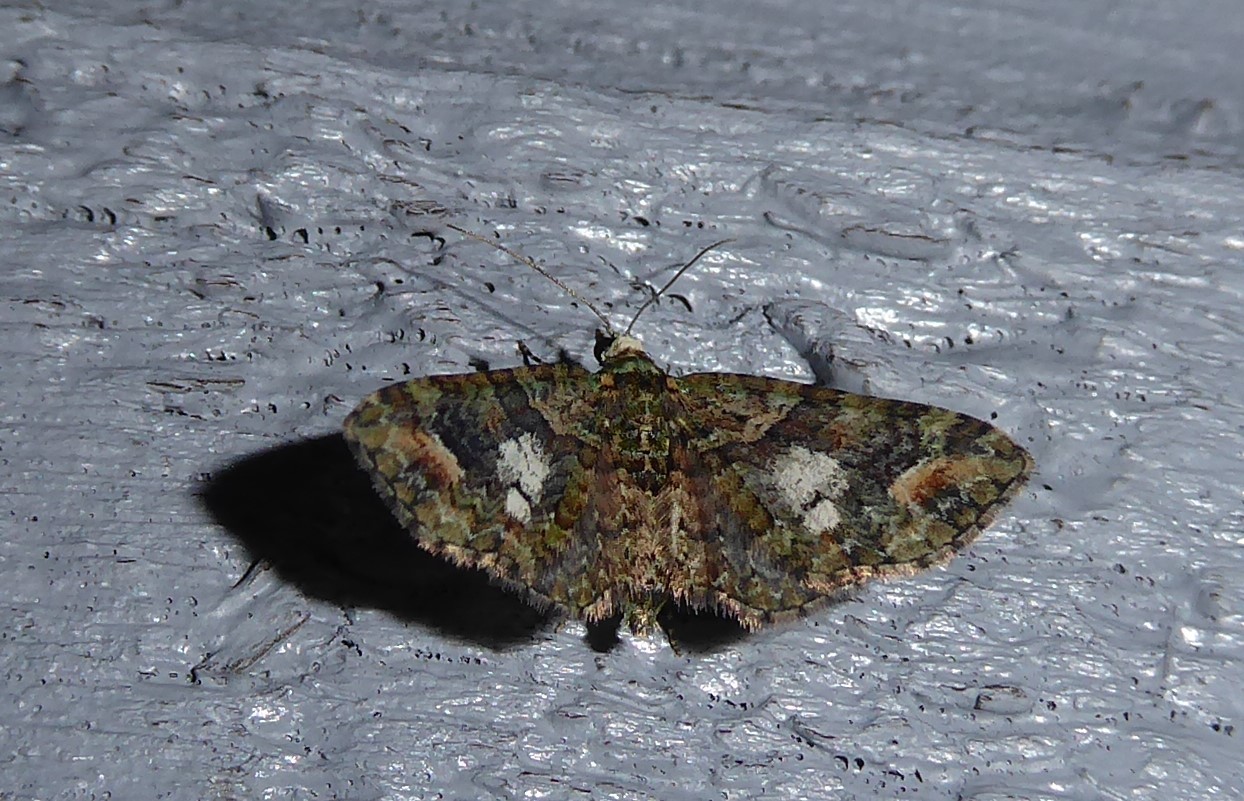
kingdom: Animalia
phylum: Arthropoda
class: Insecta
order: Lepidoptera
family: Geometridae
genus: Idaea
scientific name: Idaea mutanda
